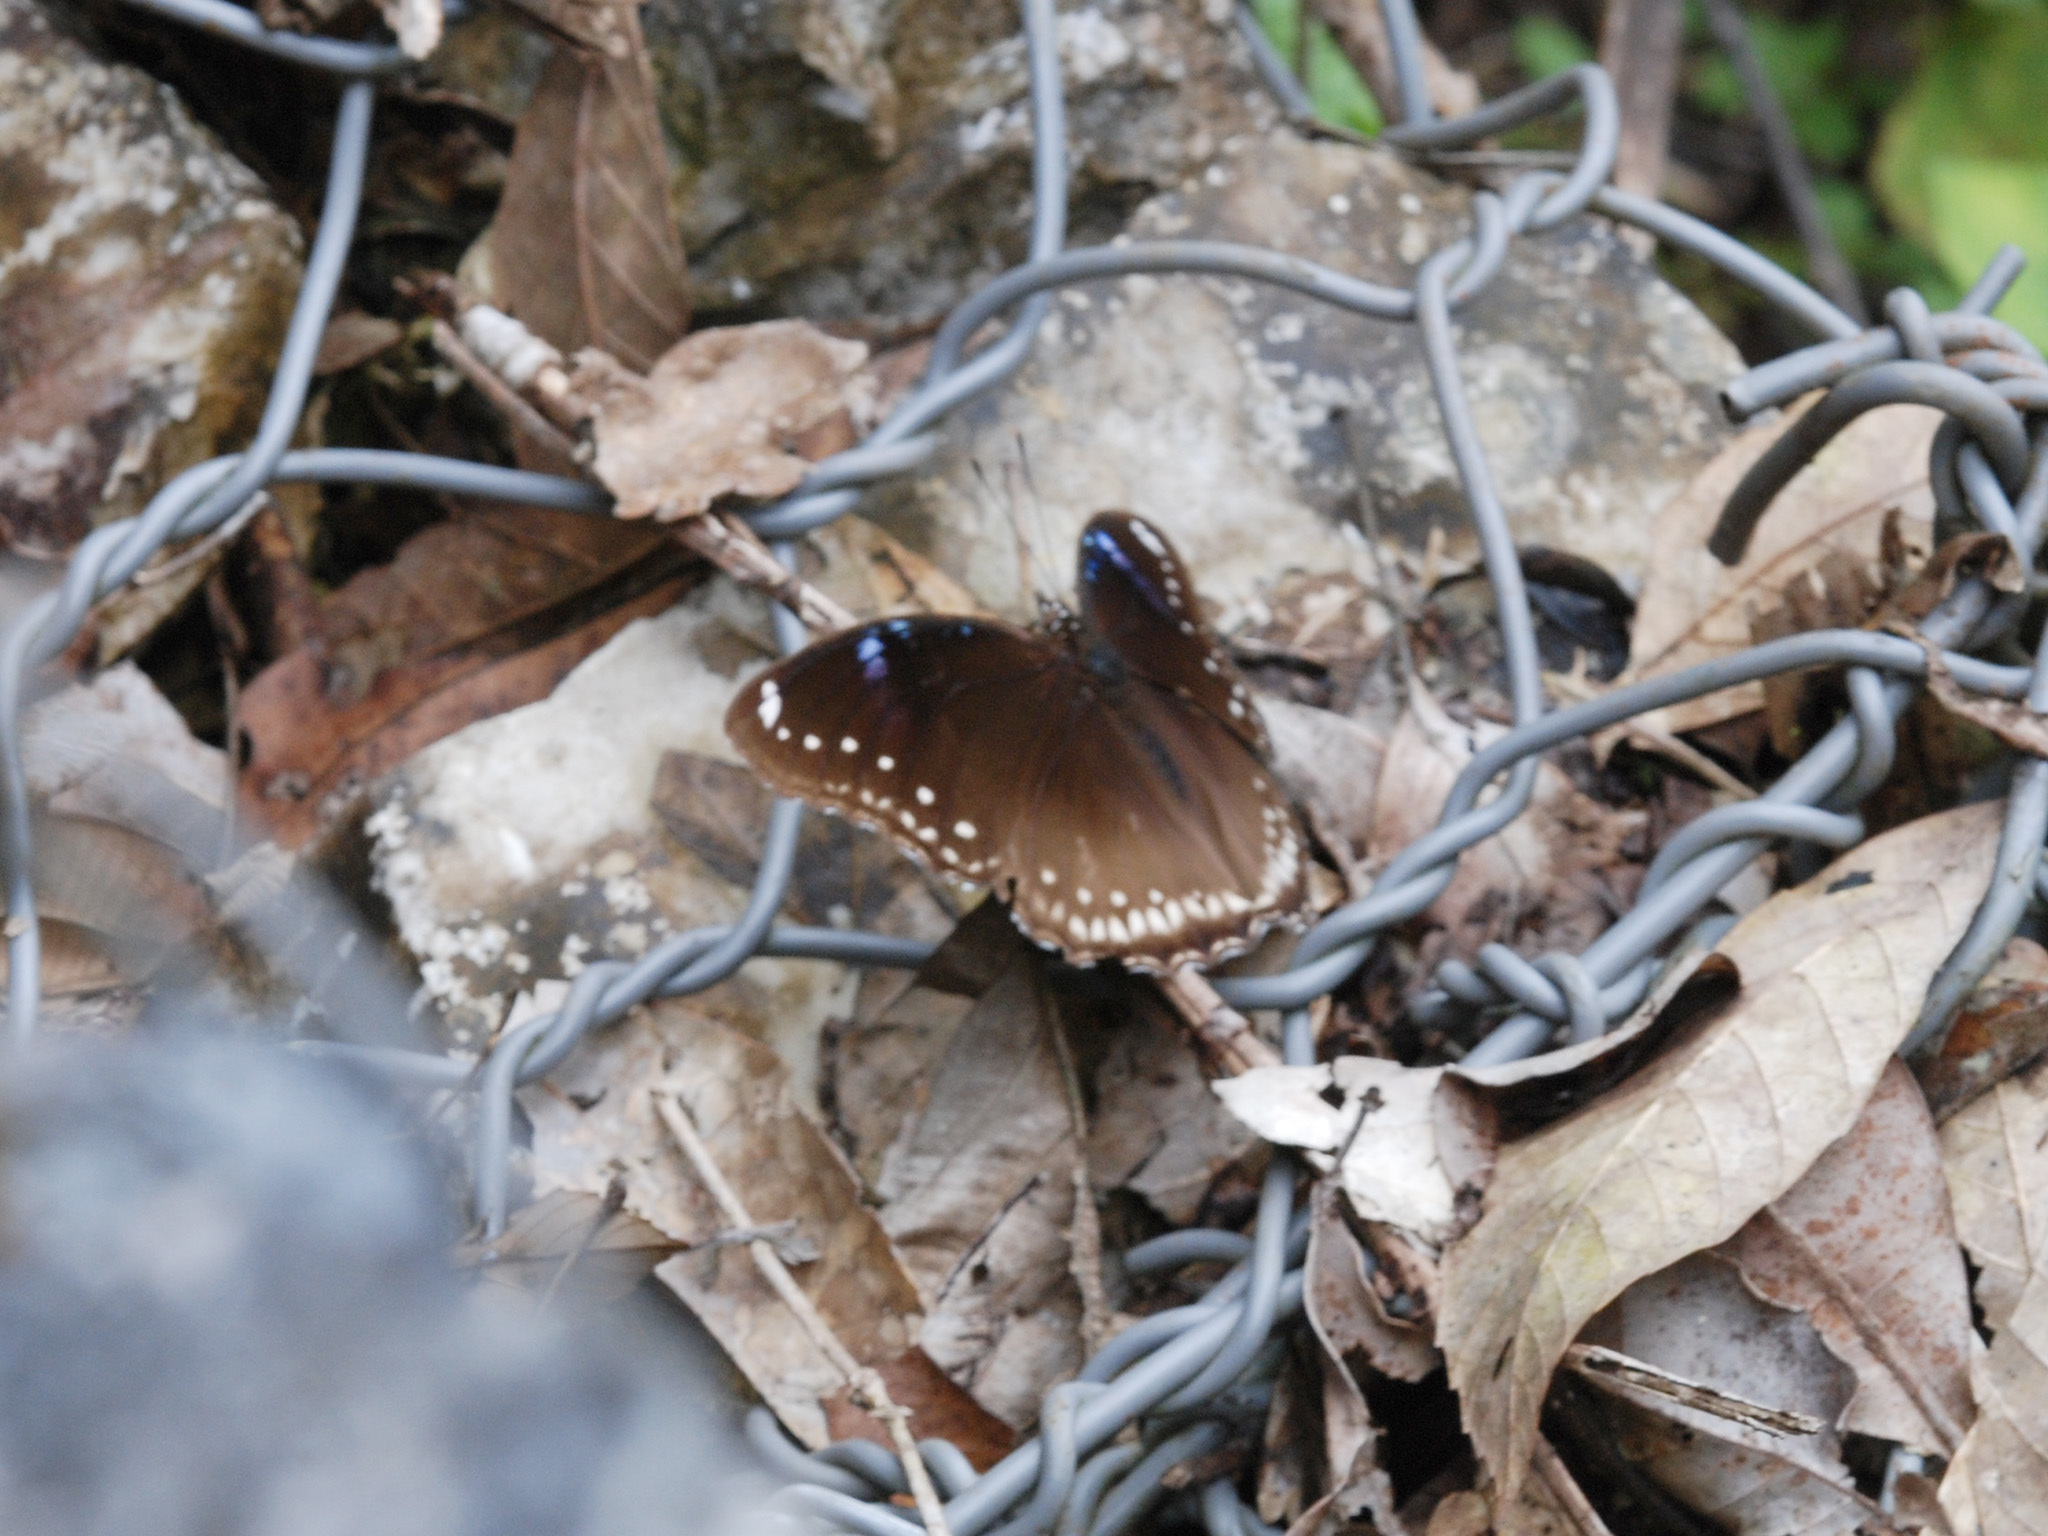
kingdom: Animalia
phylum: Arthropoda
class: Insecta
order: Lepidoptera
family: Nymphalidae
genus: Hypolimnas
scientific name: Hypolimnas bolina
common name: Great eggfly
